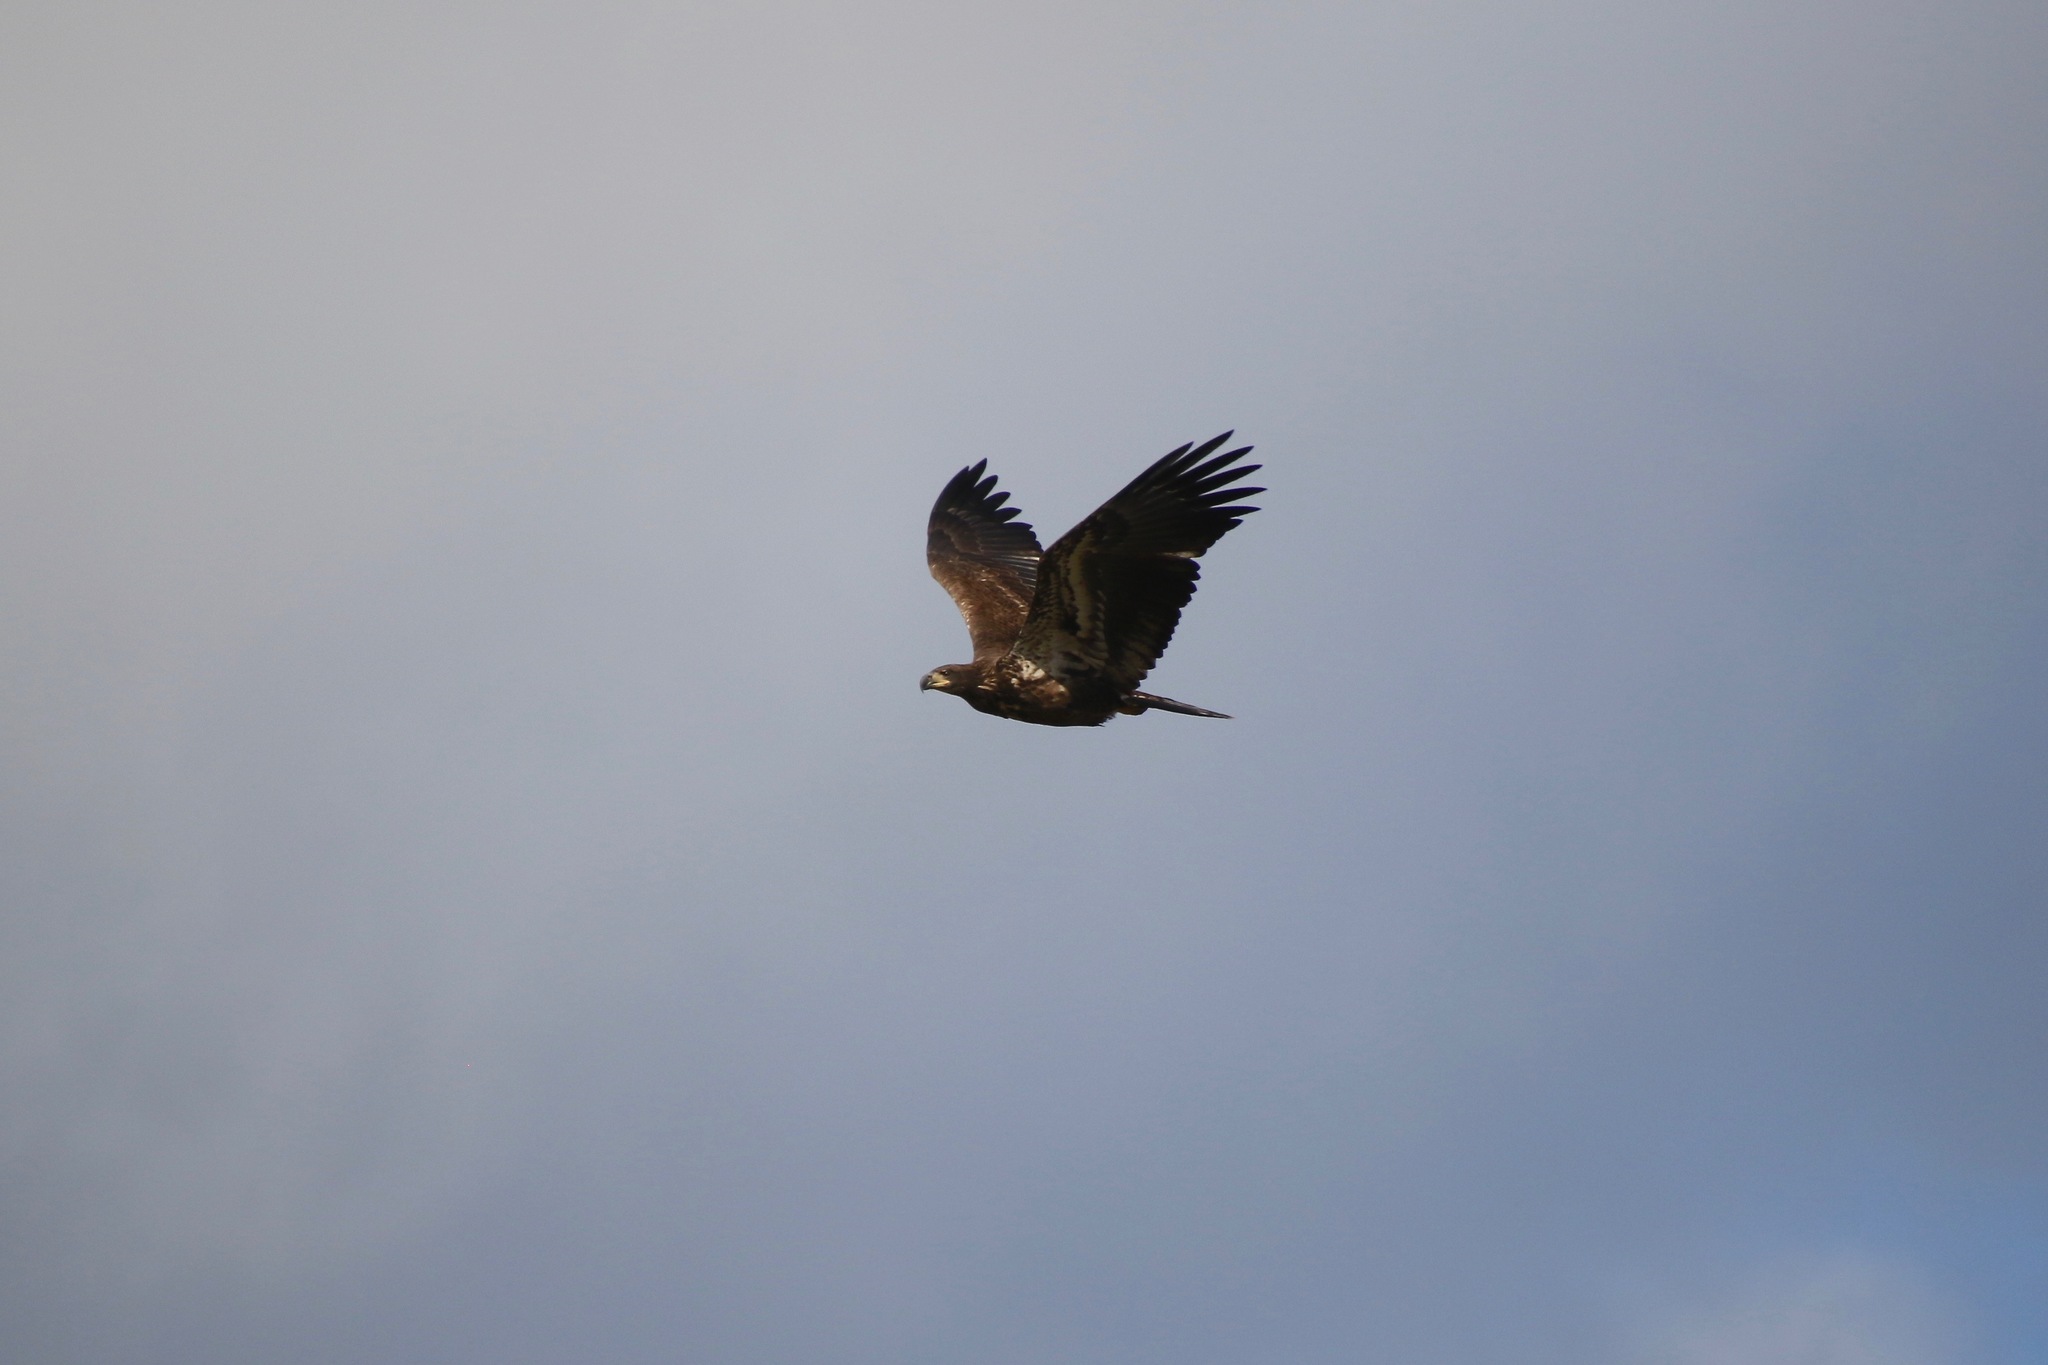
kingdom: Animalia
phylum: Chordata
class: Aves
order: Accipitriformes
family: Accipitridae
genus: Haliaeetus
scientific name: Haliaeetus leucocephalus
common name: Bald eagle
